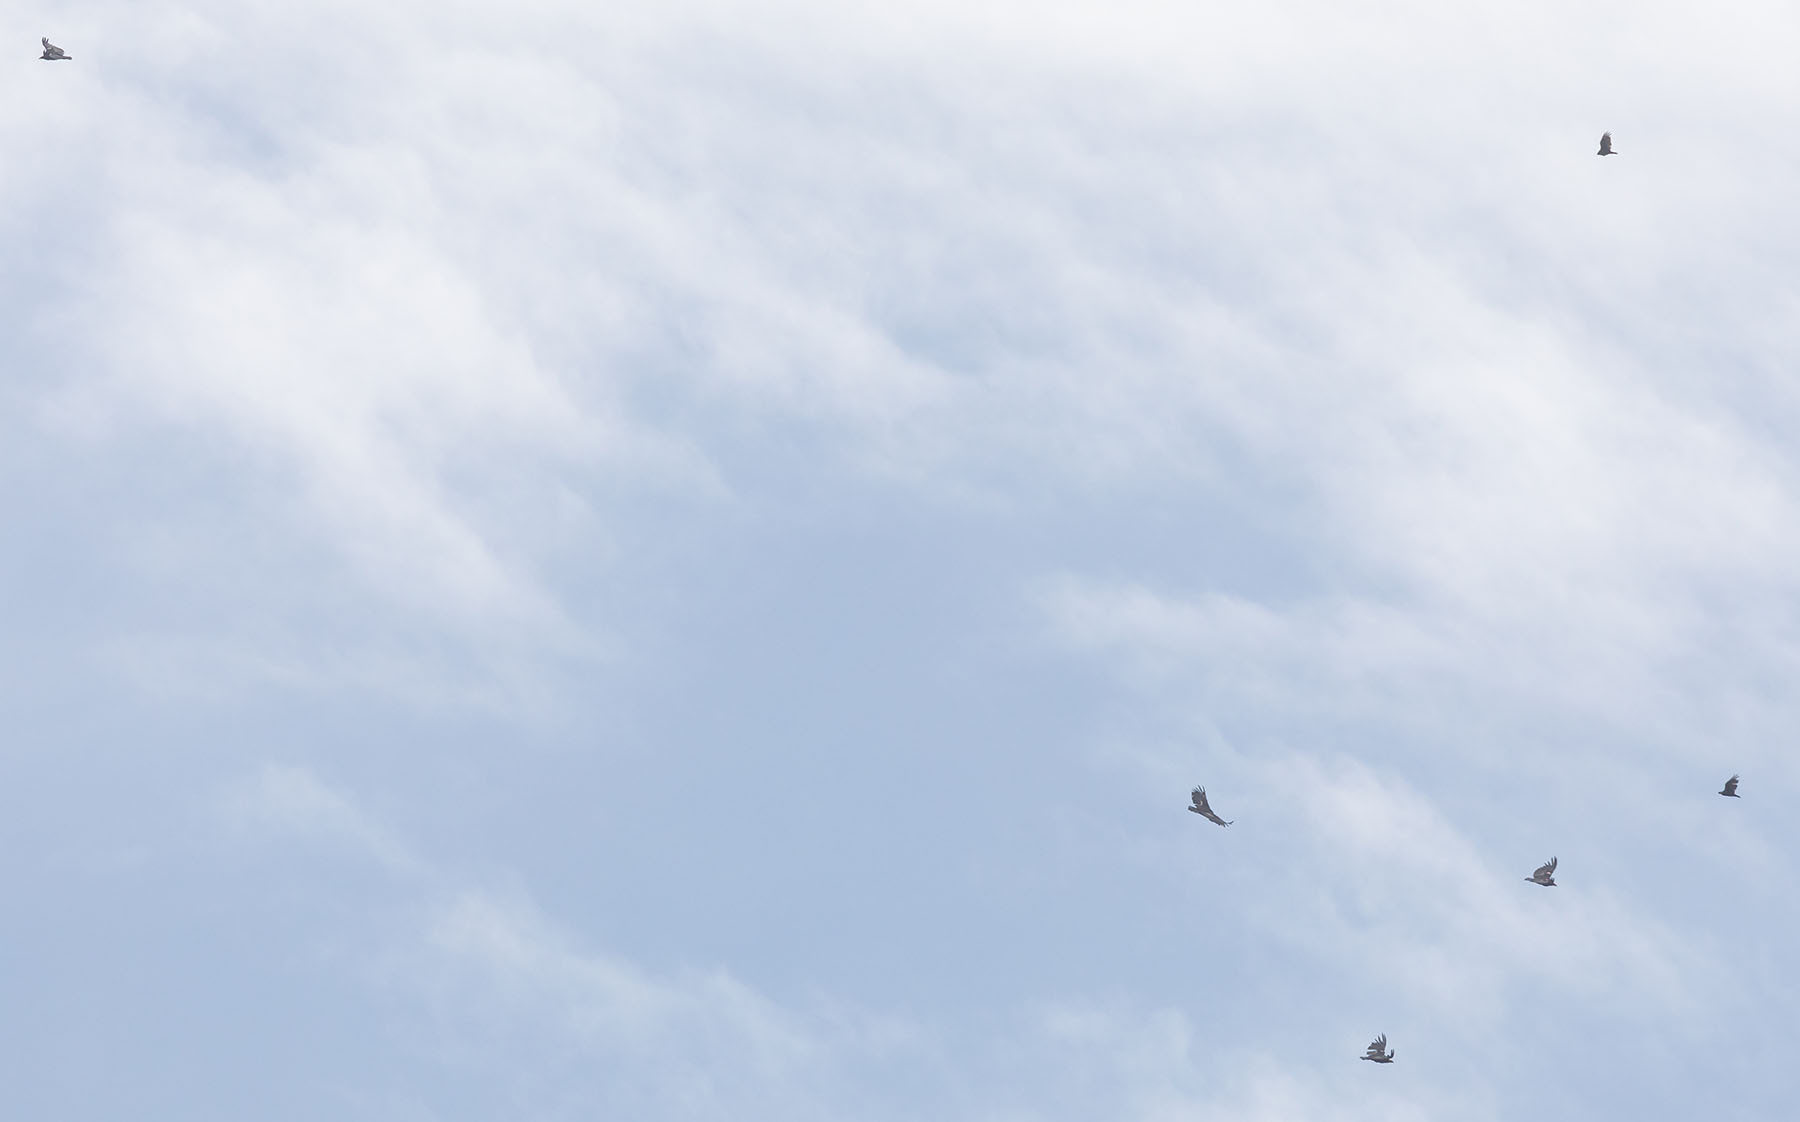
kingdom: Animalia
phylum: Chordata
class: Aves
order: Accipitriformes
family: Cathartidae
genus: Gymnogyps
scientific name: Gymnogyps californianus
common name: California condor
